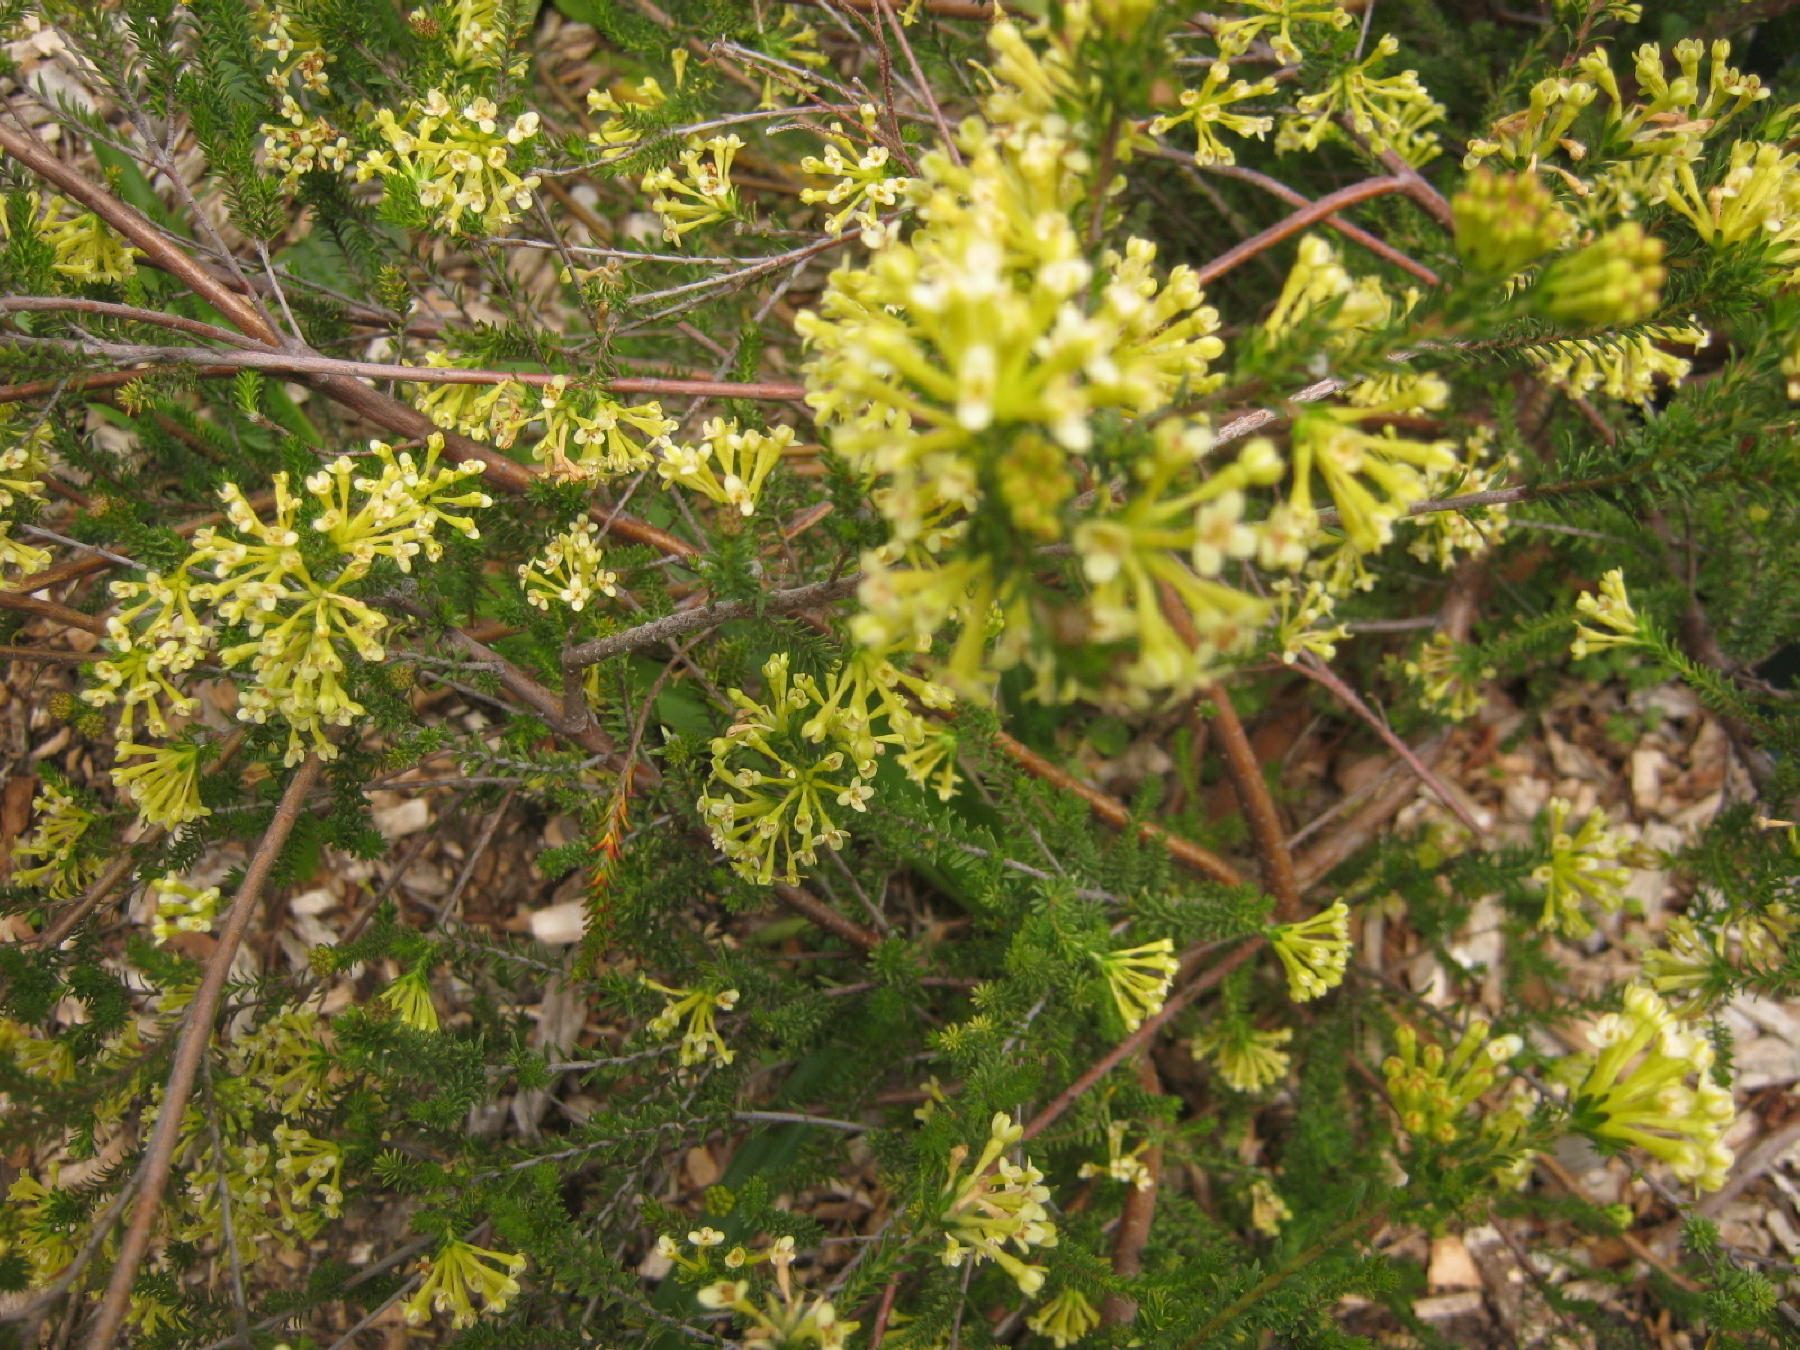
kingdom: Plantae
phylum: Tracheophyta
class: Magnoliopsida
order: Malvales
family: Thymelaeaceae
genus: Gnidia
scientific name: Gnidia squarrosa
